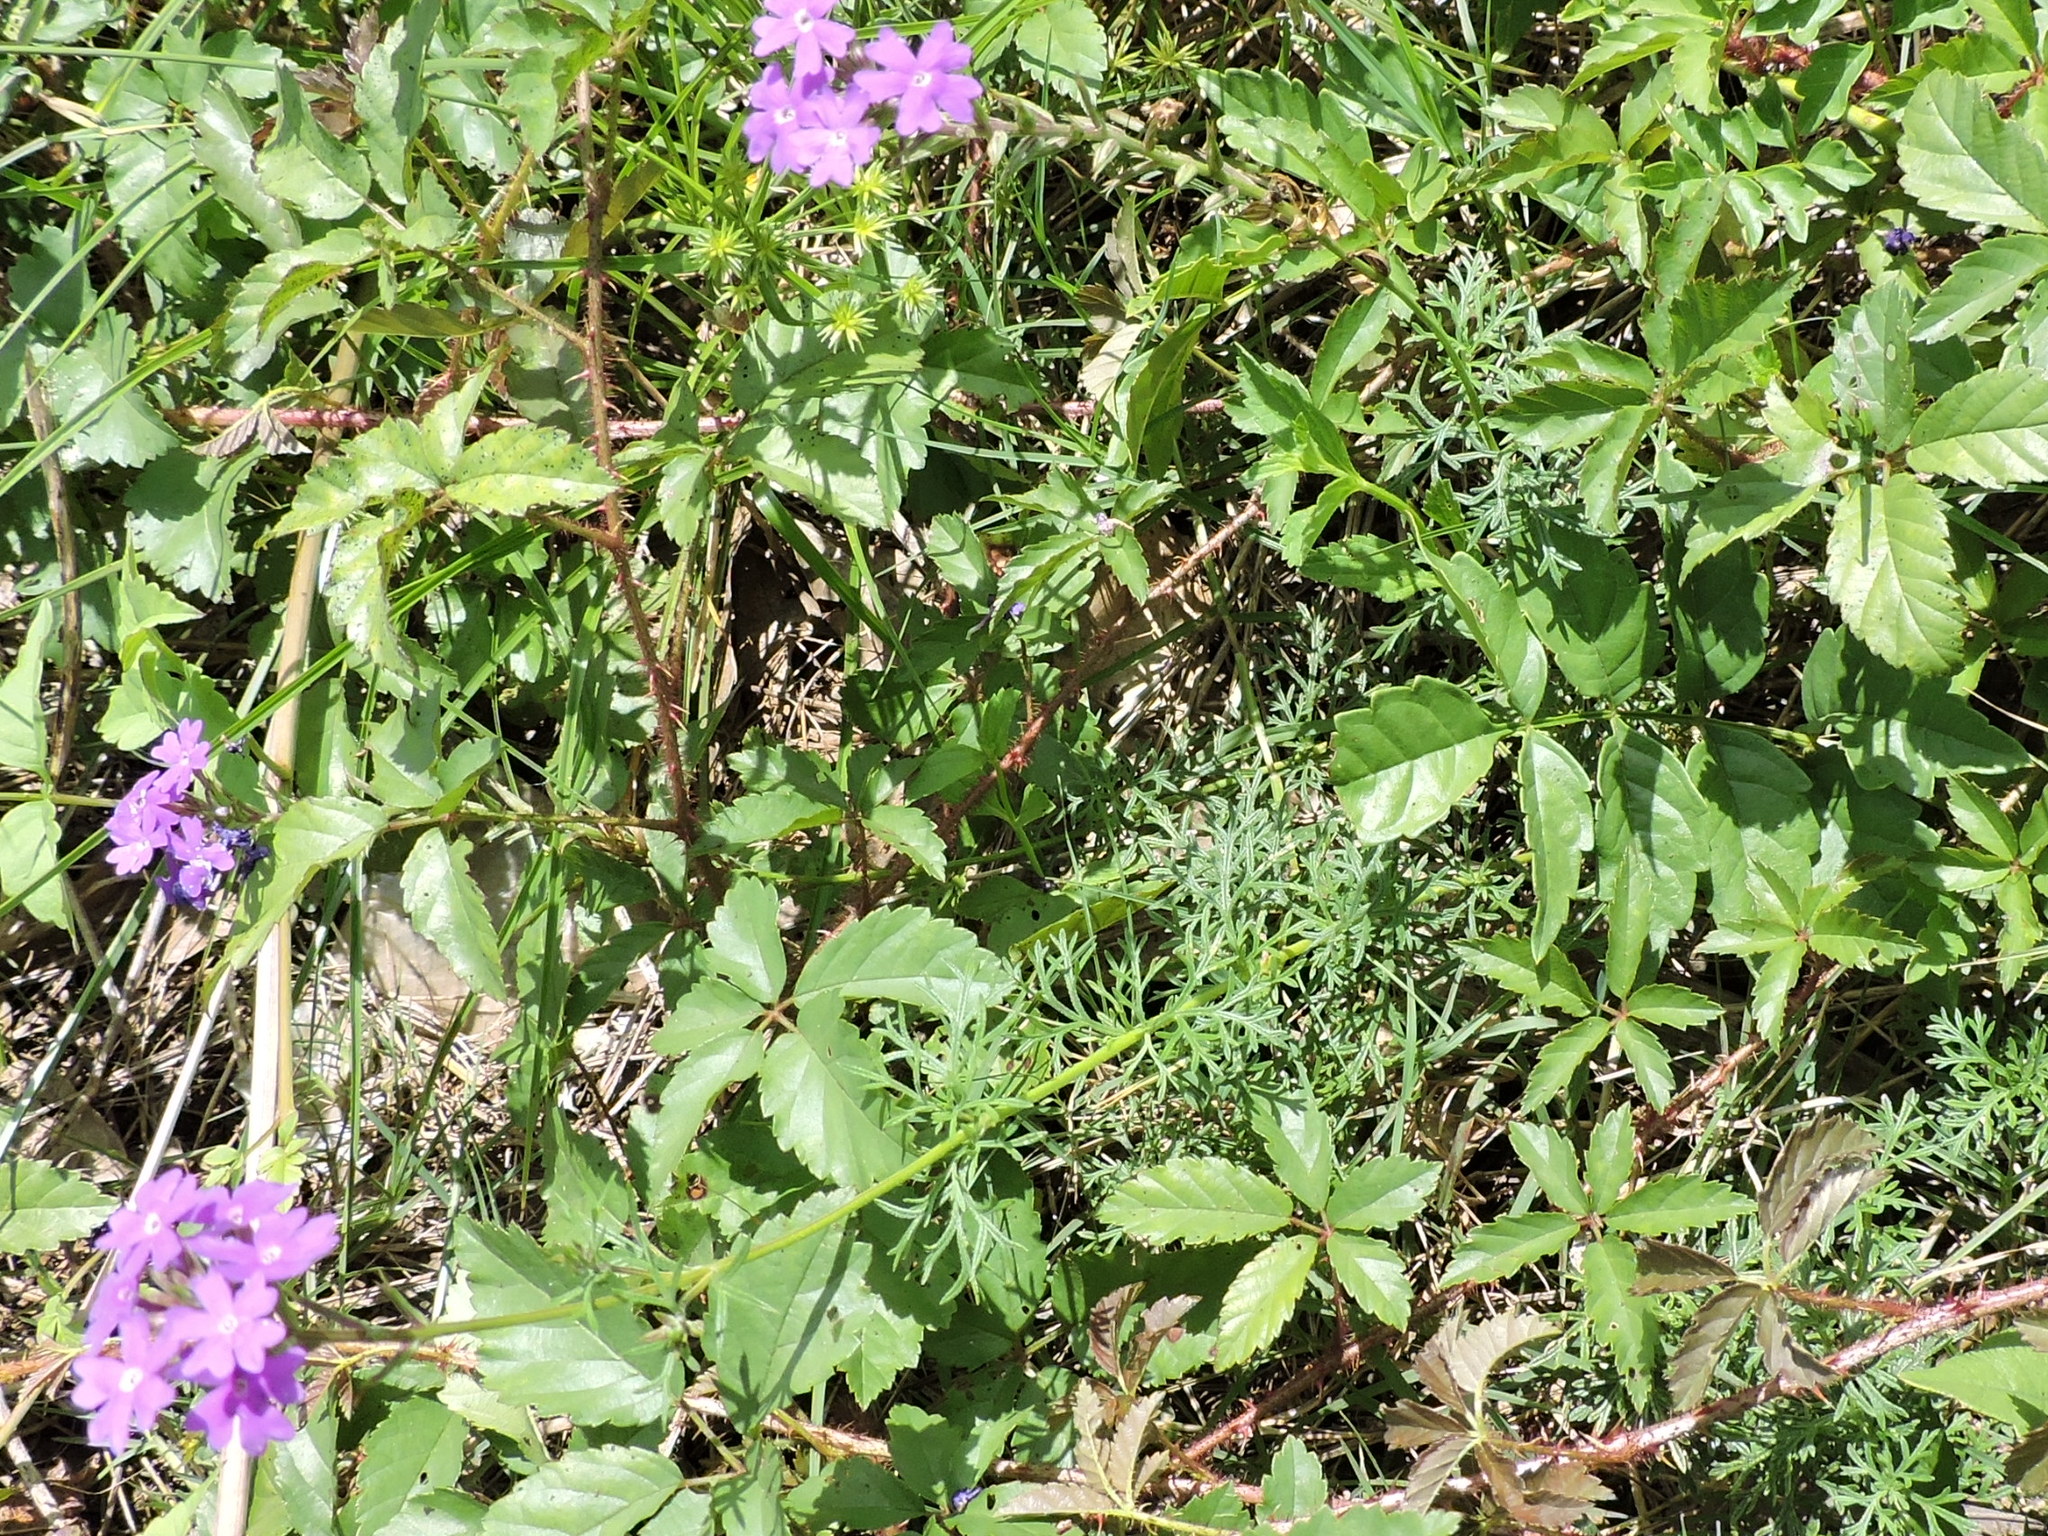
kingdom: Plantae
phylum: Tracheophyta
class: Magnoliopsida
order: Lamiales
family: Verbenaceae
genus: Verbena
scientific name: Verbena
